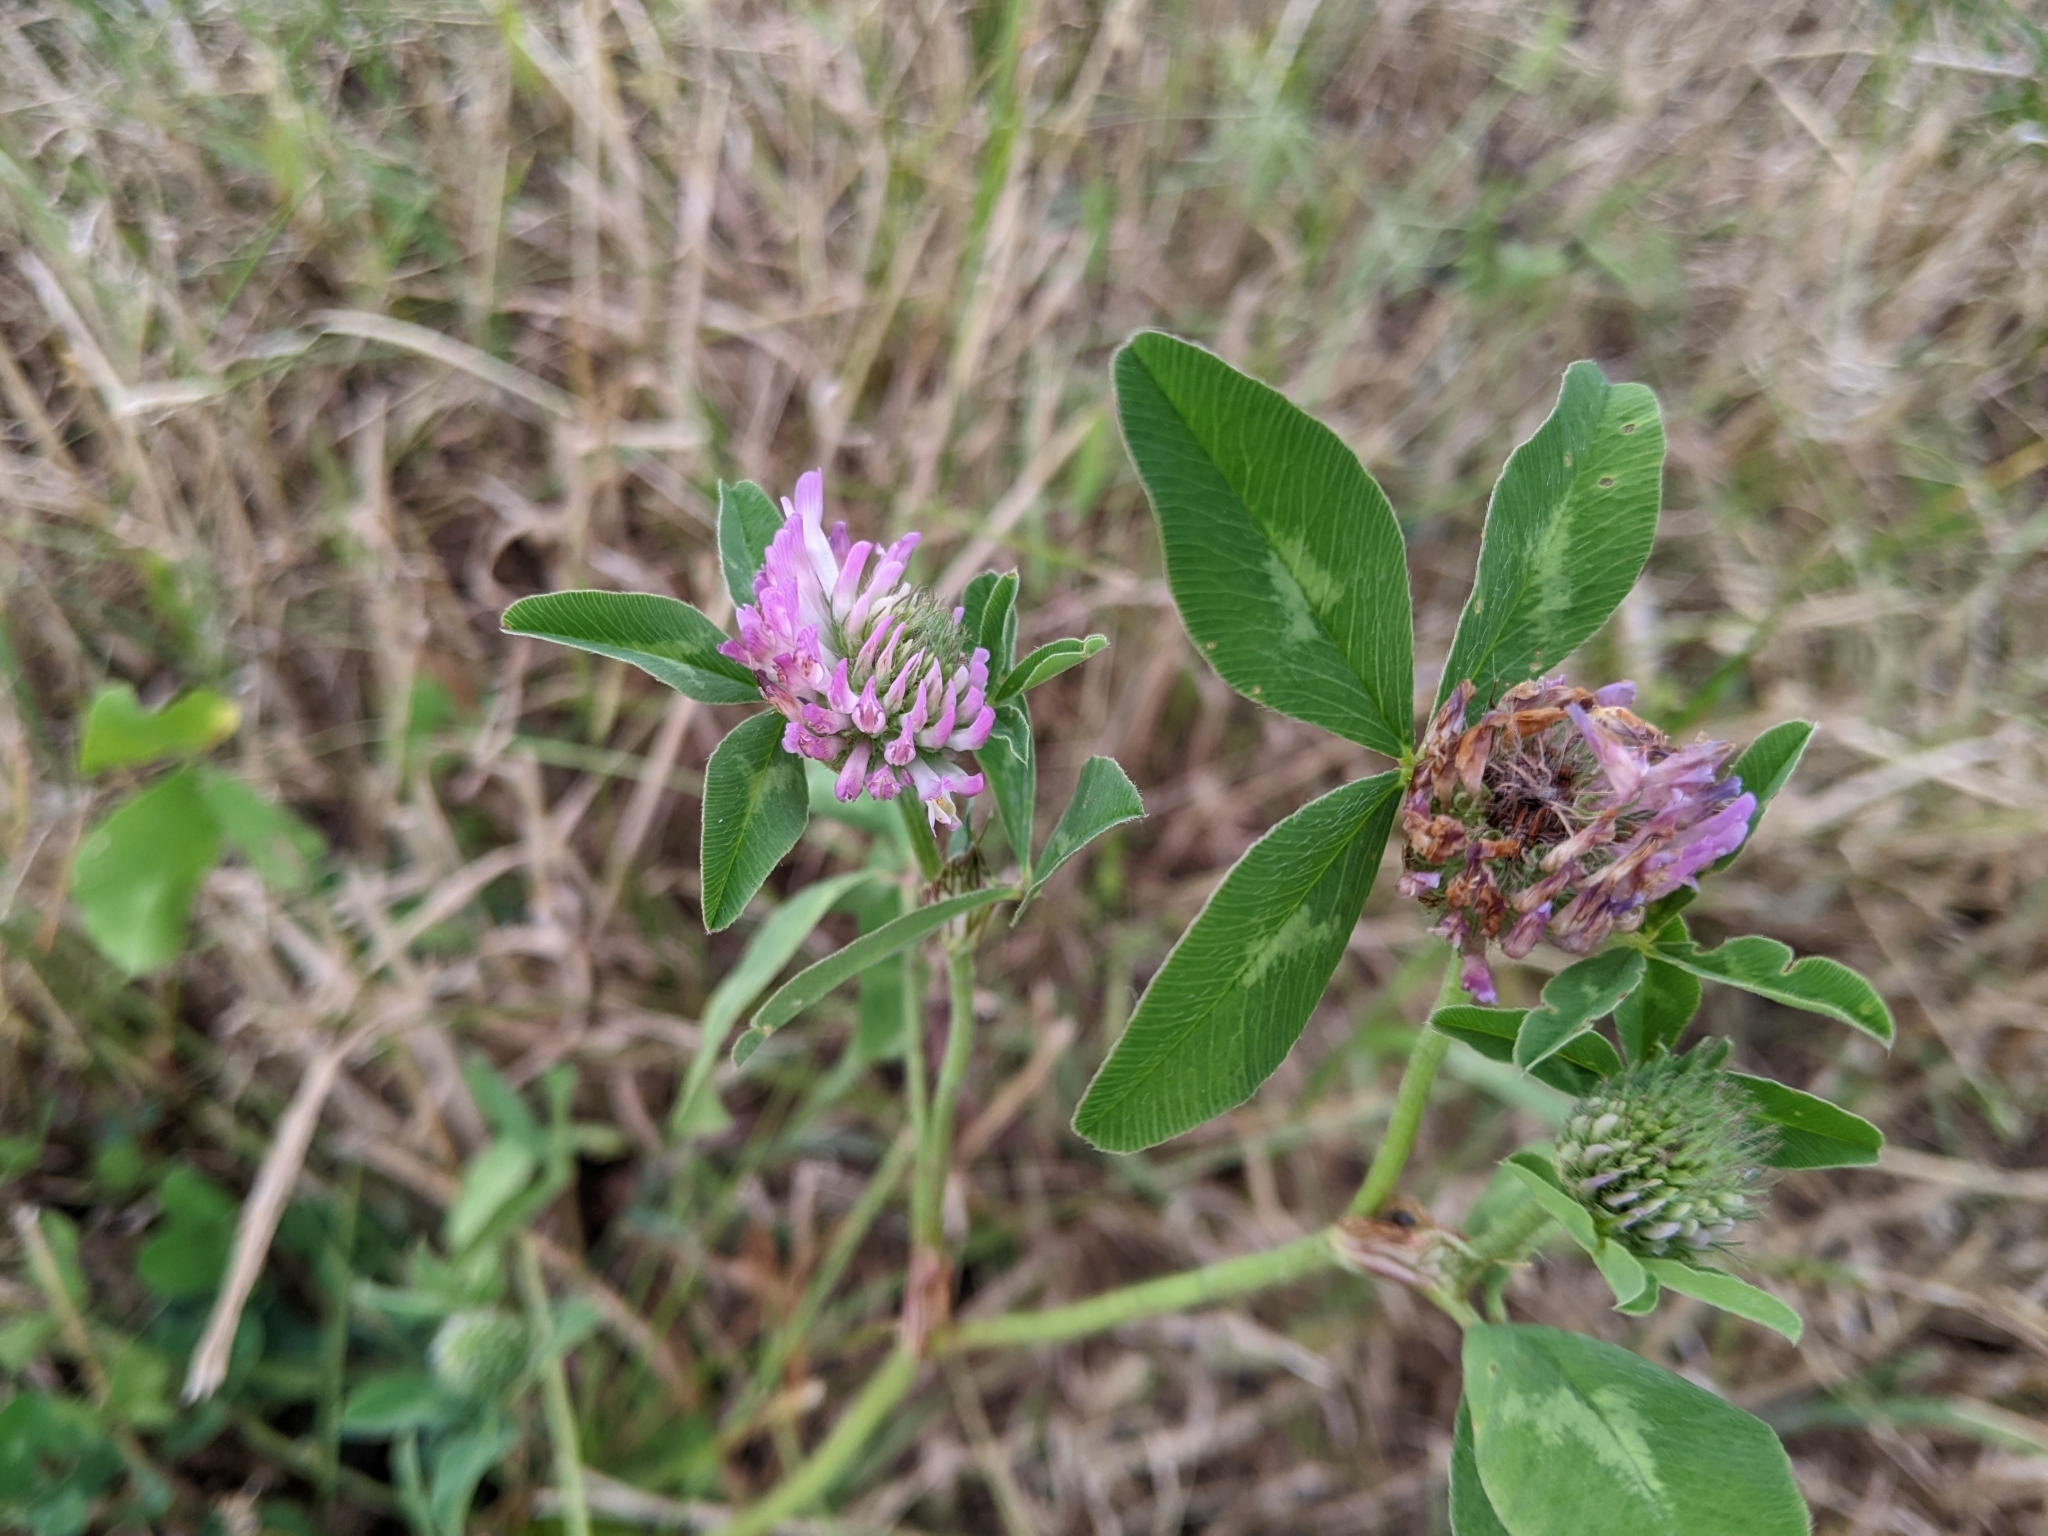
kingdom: Plantae
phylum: Tracheophyta
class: Magnoliopsida
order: Fabales
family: Fabaceae
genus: Trifolium
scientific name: Trifolium pratense
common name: Red clover
